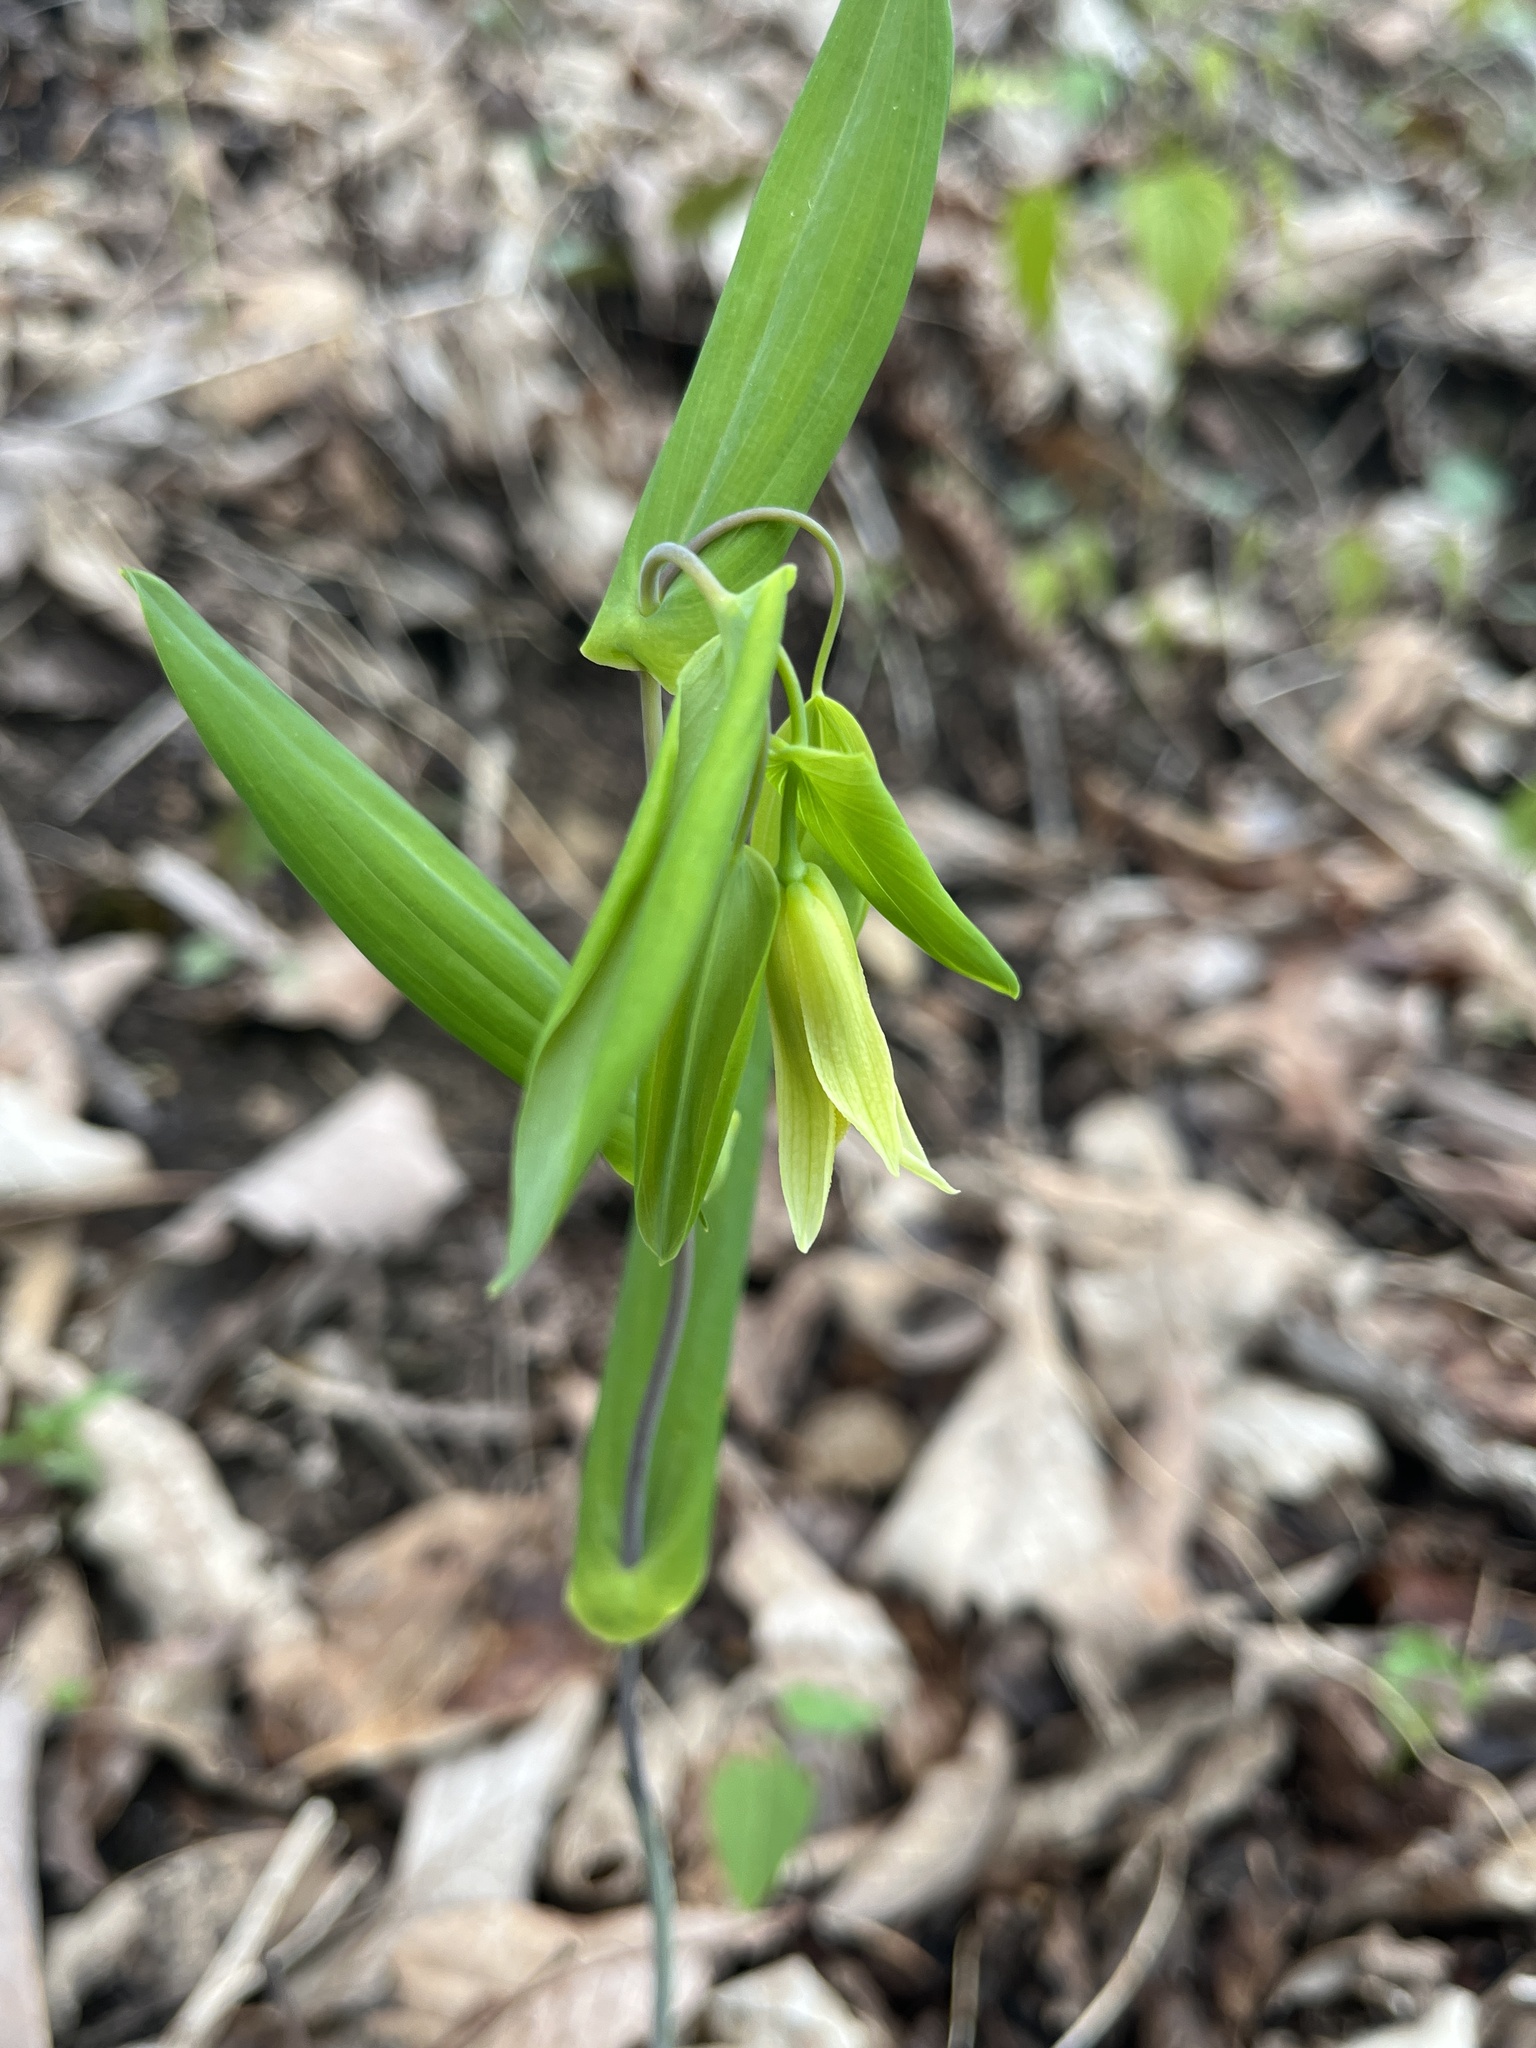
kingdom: Plantae
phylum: Tracheophyta
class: Liliopsida
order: Liliales
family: Colchicaceae
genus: Uvularia
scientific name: Uvularia perfoliata
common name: Perfoliate bellwort
